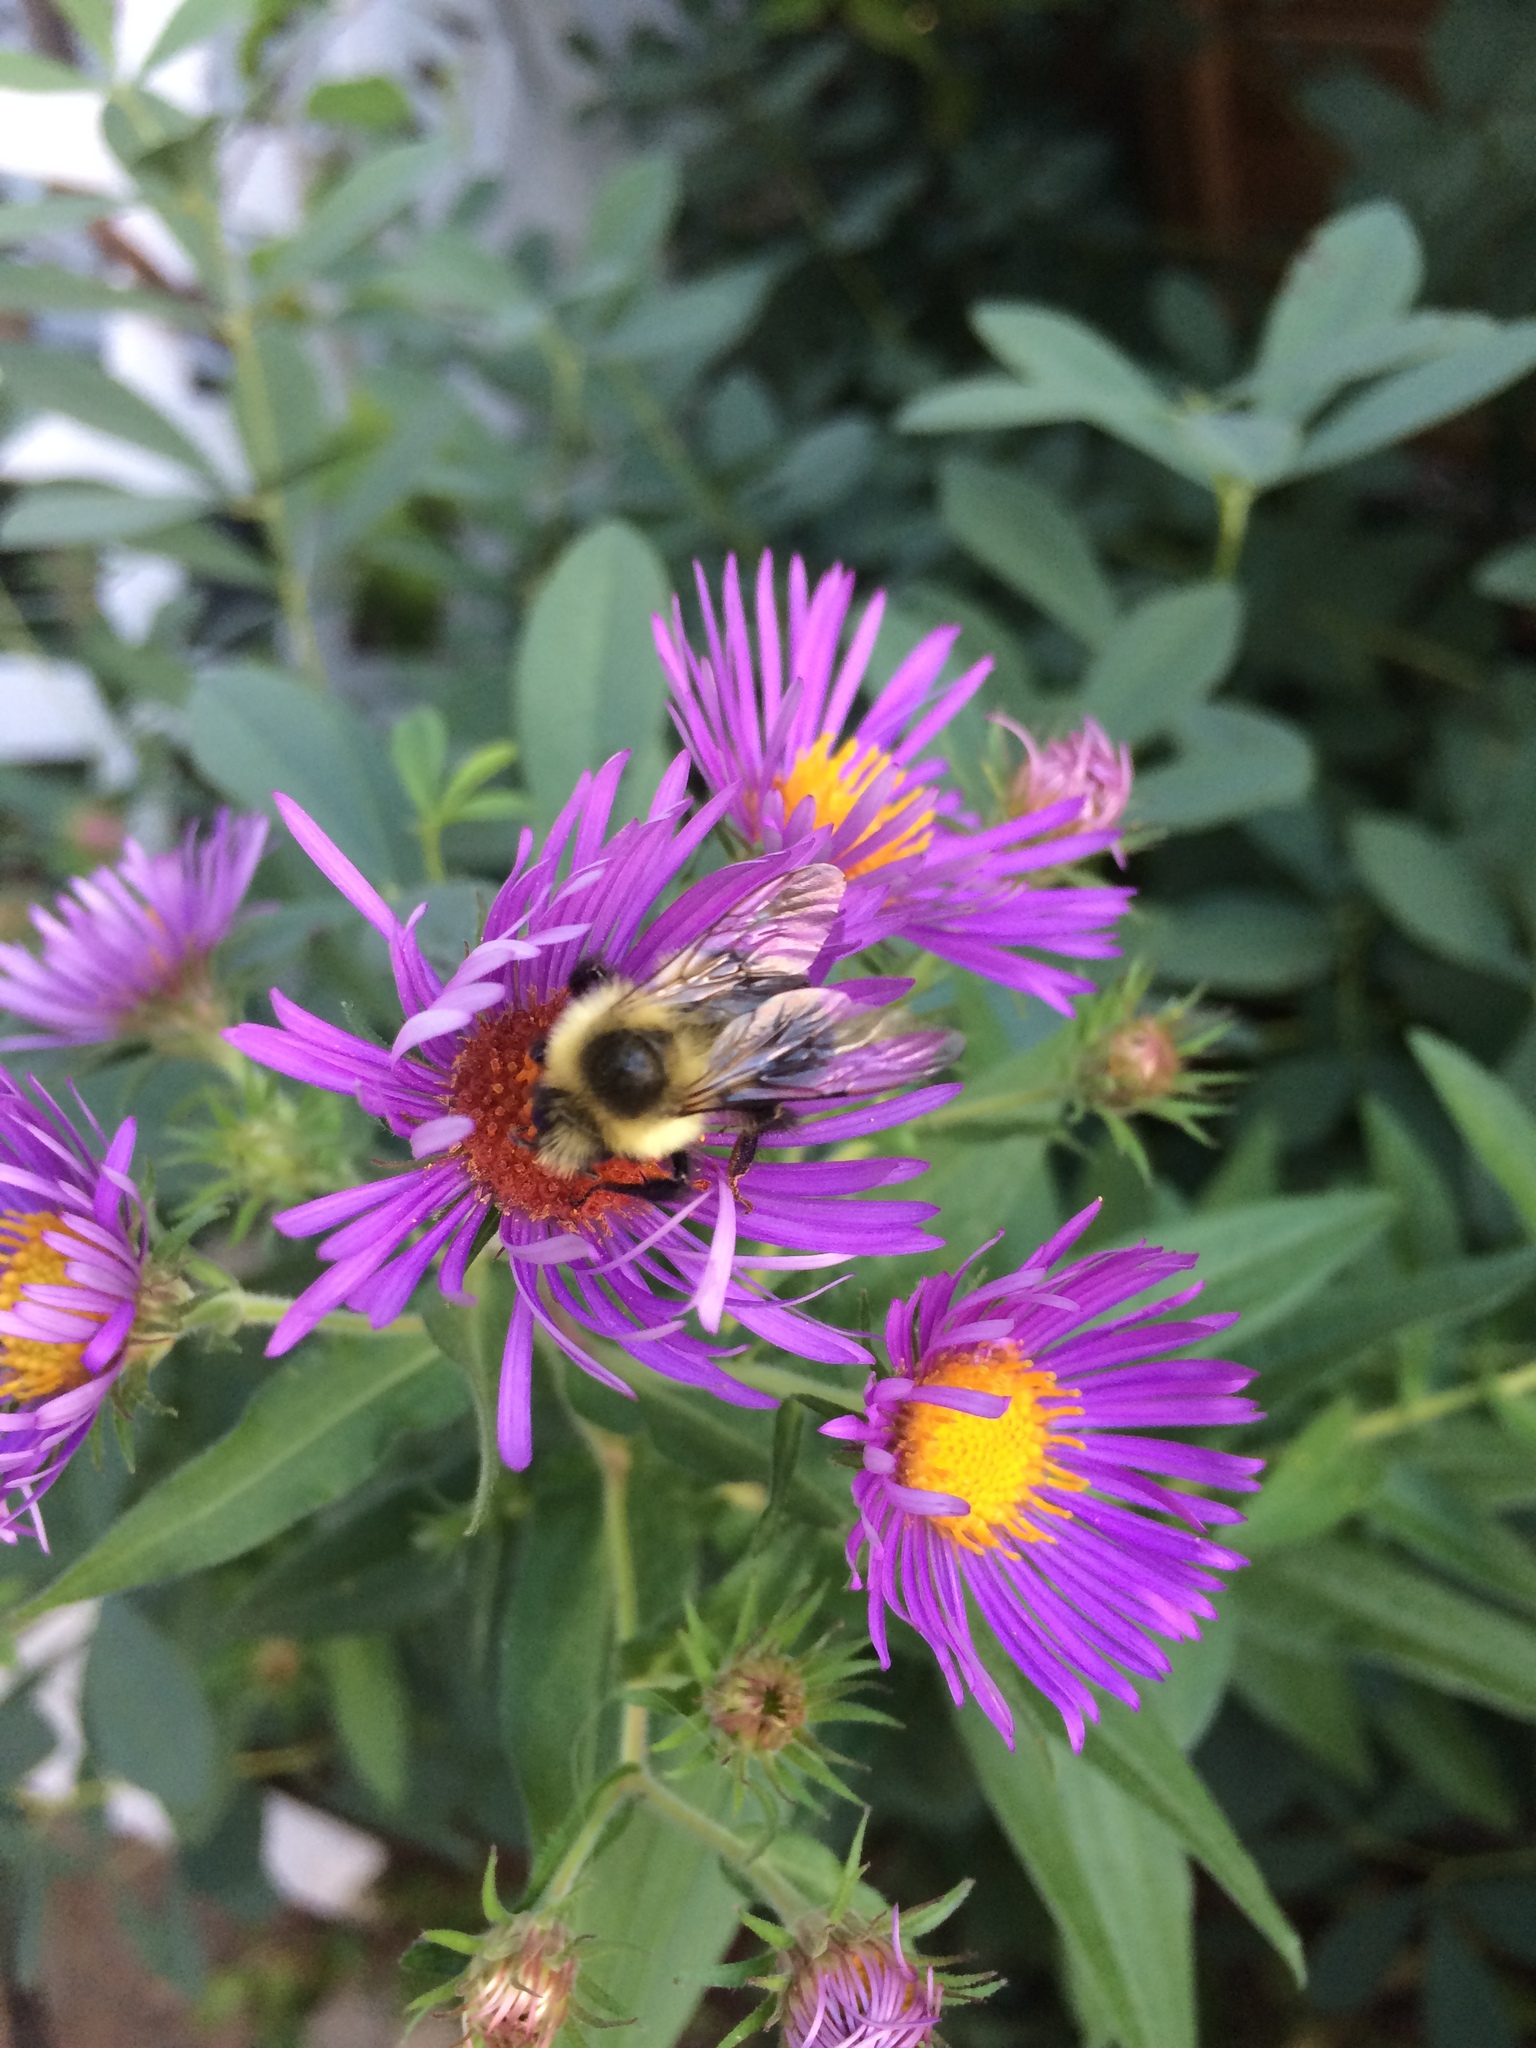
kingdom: Plantae
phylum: Tracheophyta
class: Magnoliopsida
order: Asterales
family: Asteraceae
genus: Symphyotrichum
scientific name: Symphyotrichum novae-angliae
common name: Michaelmas daisy
